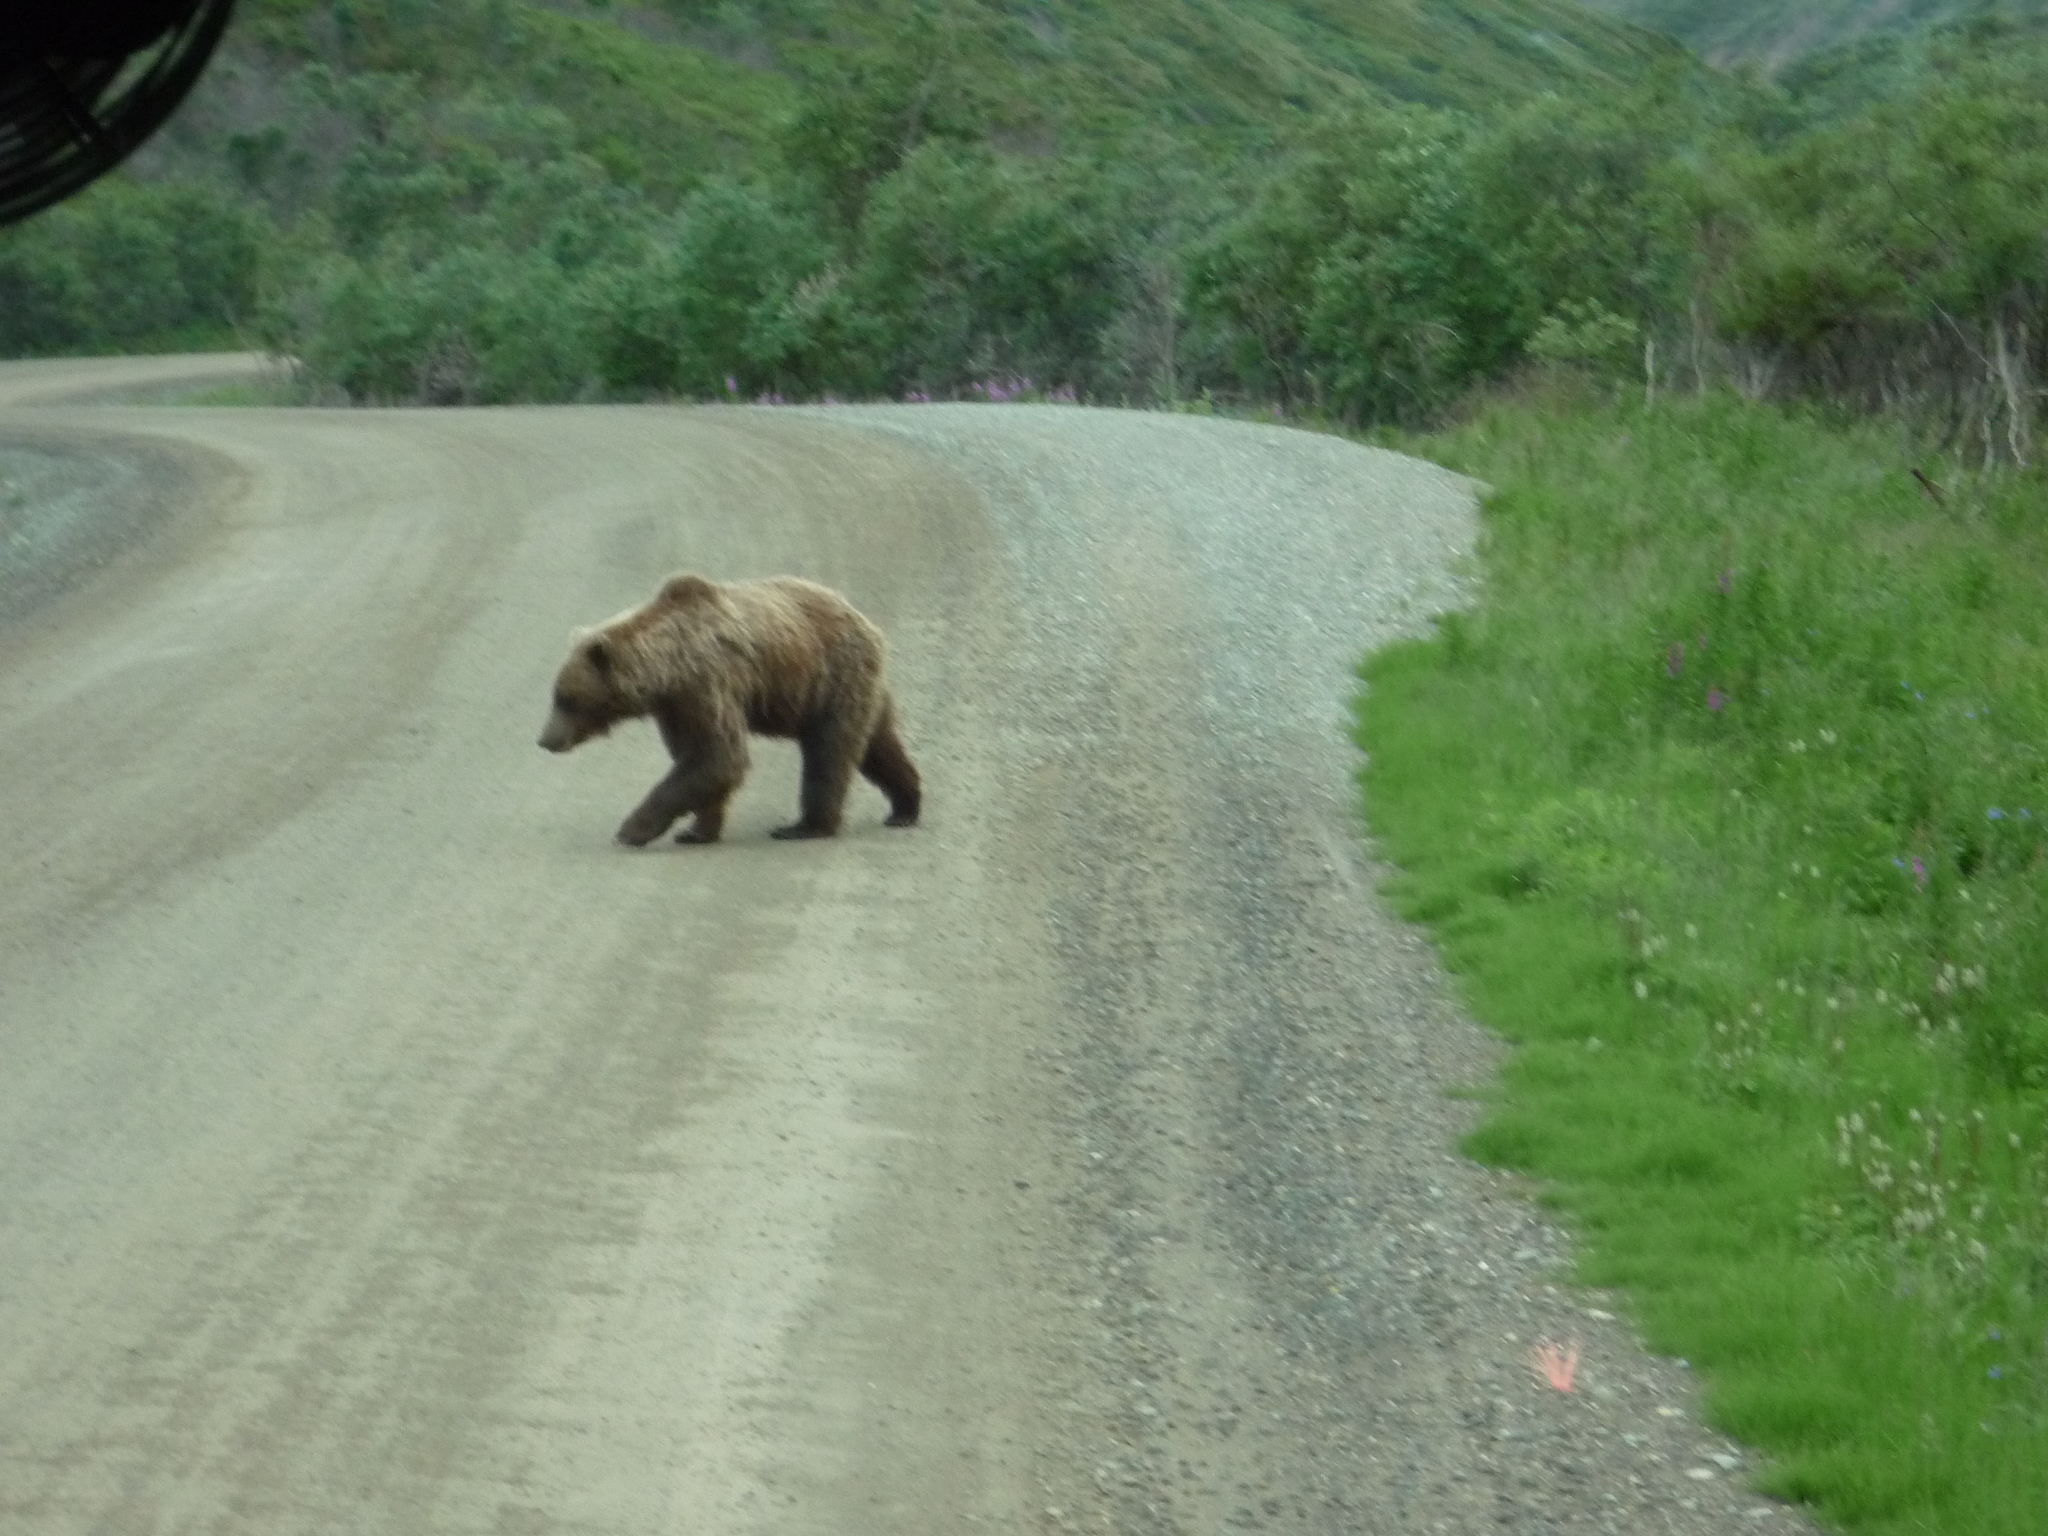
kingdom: Animalia
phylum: Chordata
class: Mammalia
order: Carnivora
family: Ursidae
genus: Ursus
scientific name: Ursus arctos
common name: Brown bear
